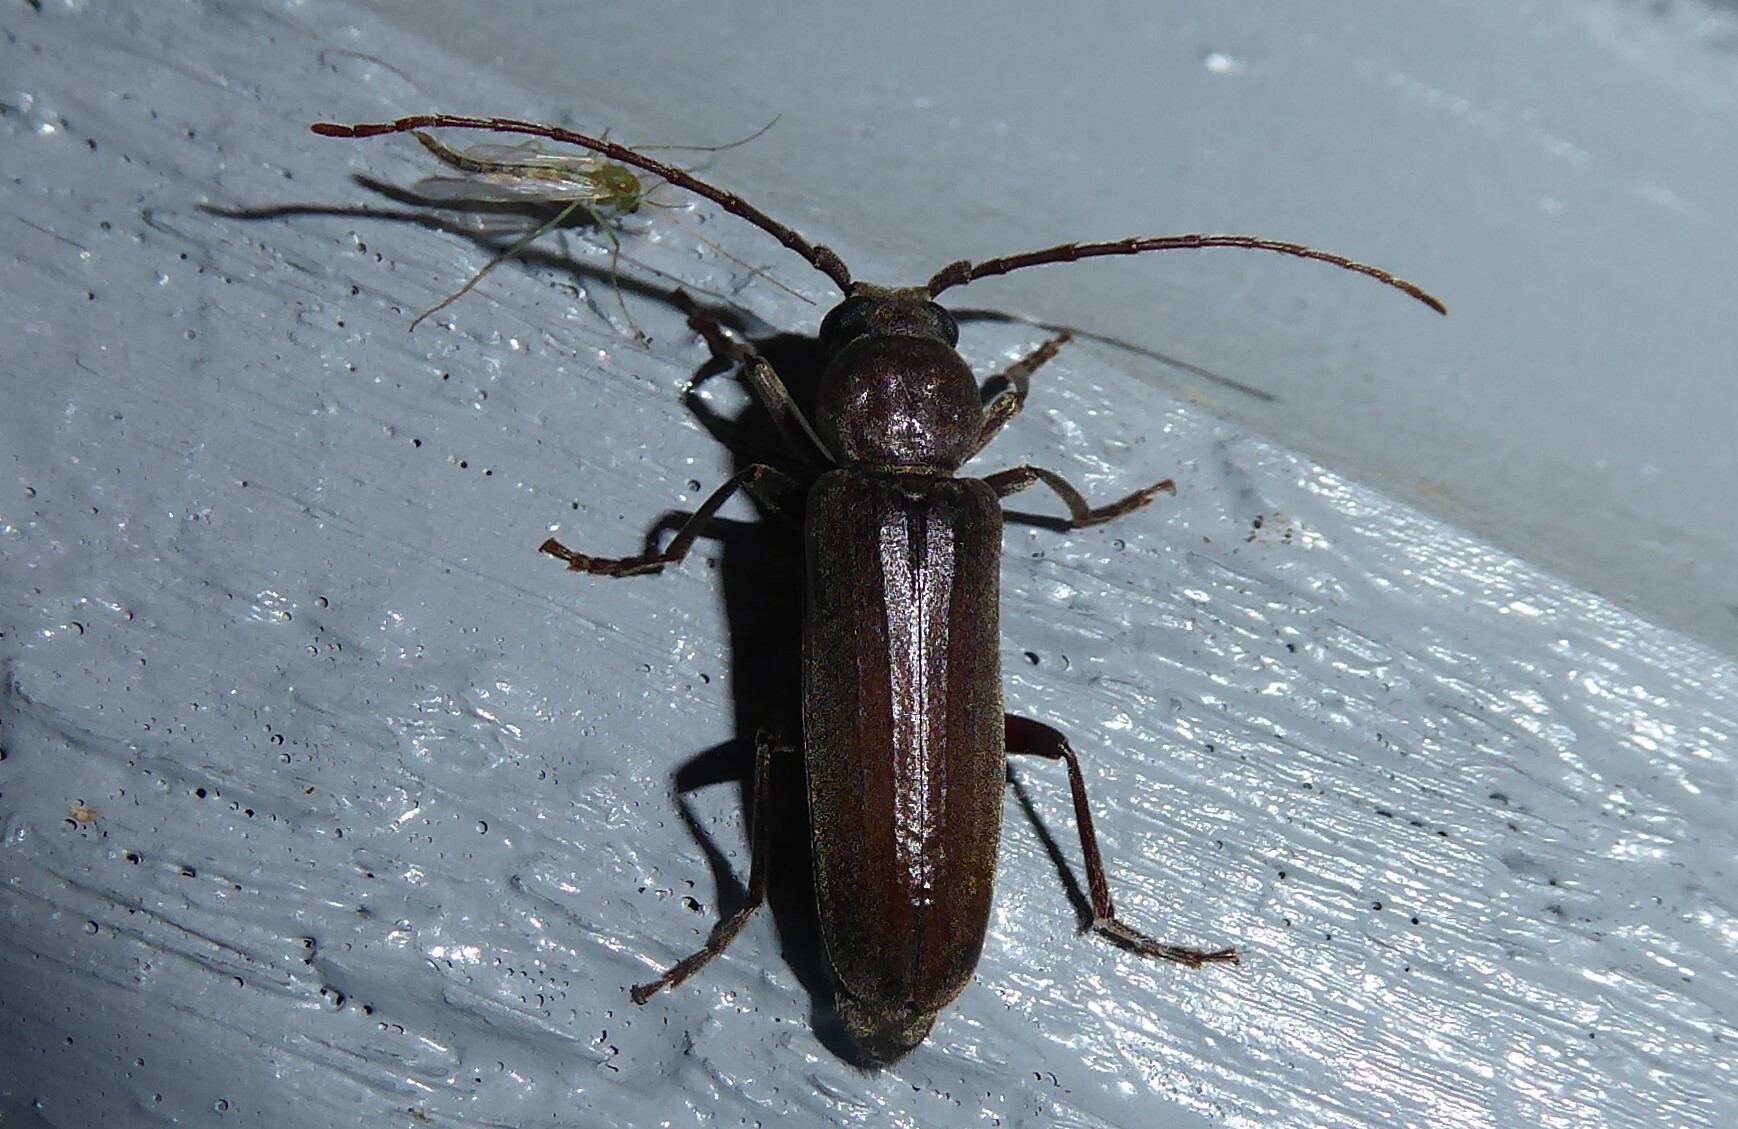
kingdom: Animalia
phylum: Arthropoda
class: Insecta
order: Coleoptera
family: Cerambycidae
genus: Arhopalus
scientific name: Arhopalus ferus
